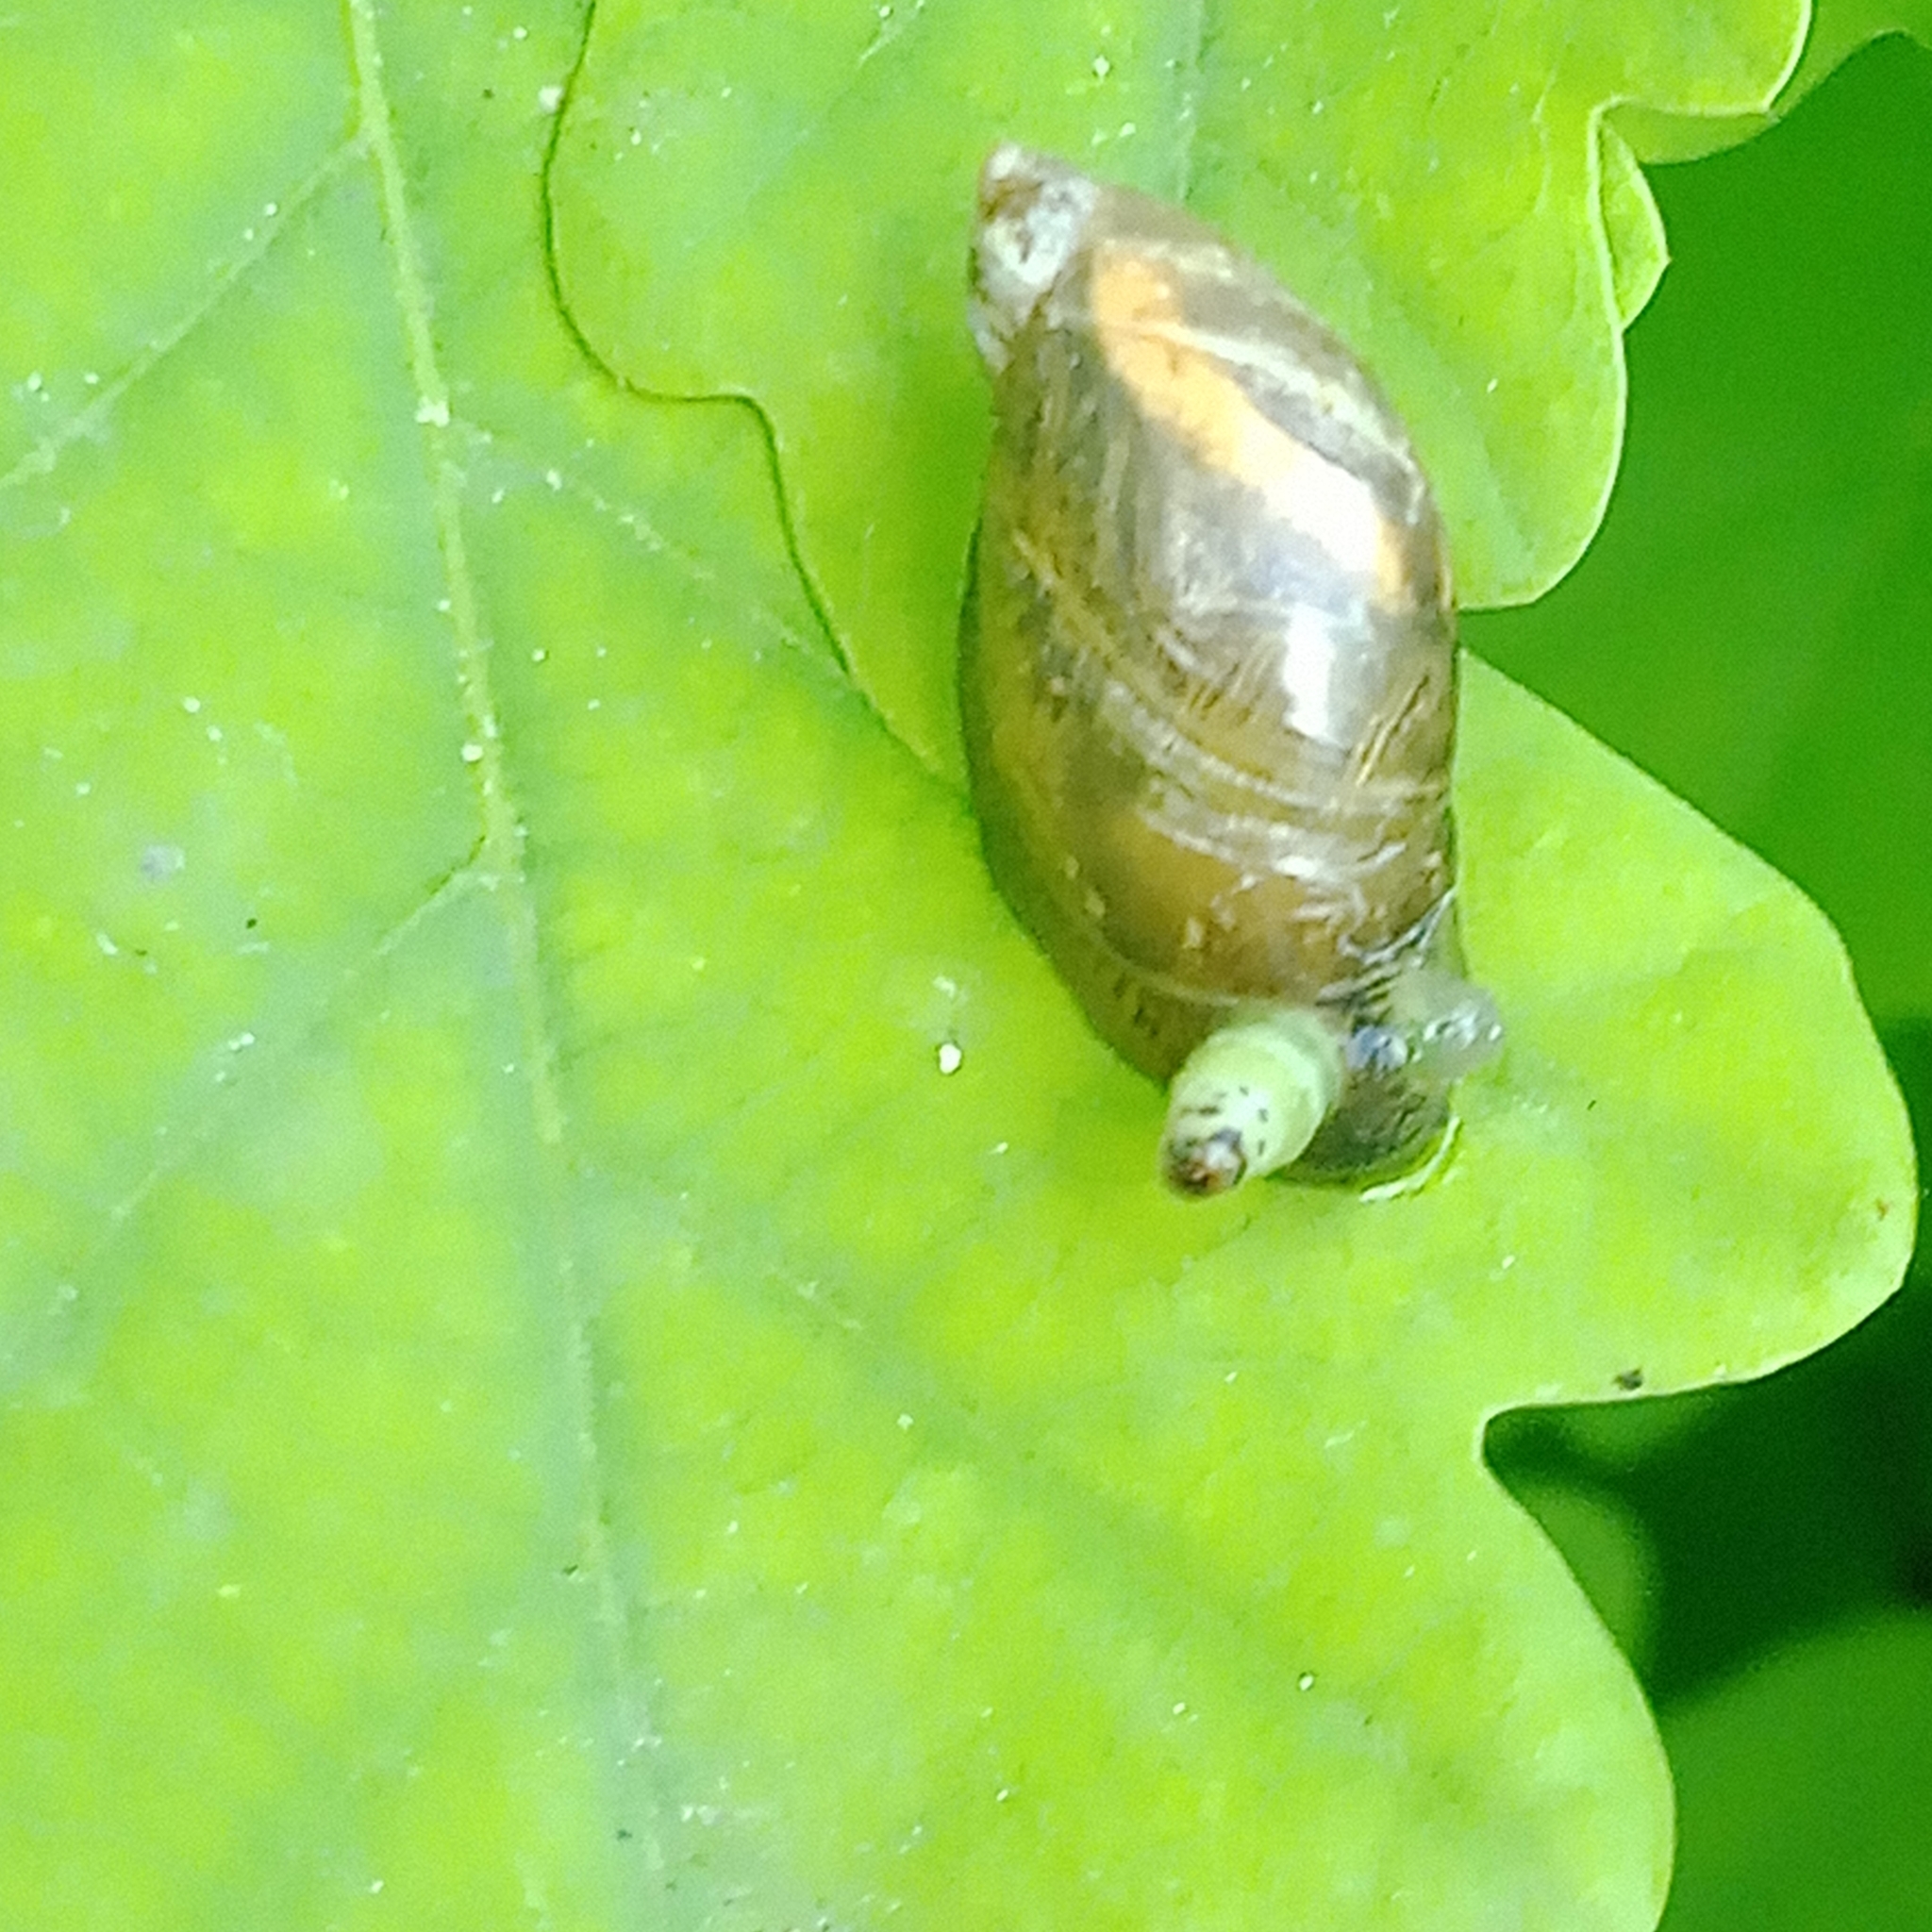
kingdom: Animalia
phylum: Platyhelminthes
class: Trematoda
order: Diplostomida
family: Leucochloridiidae
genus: Leucochloridium
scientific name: Leucochloridium paradoxum
